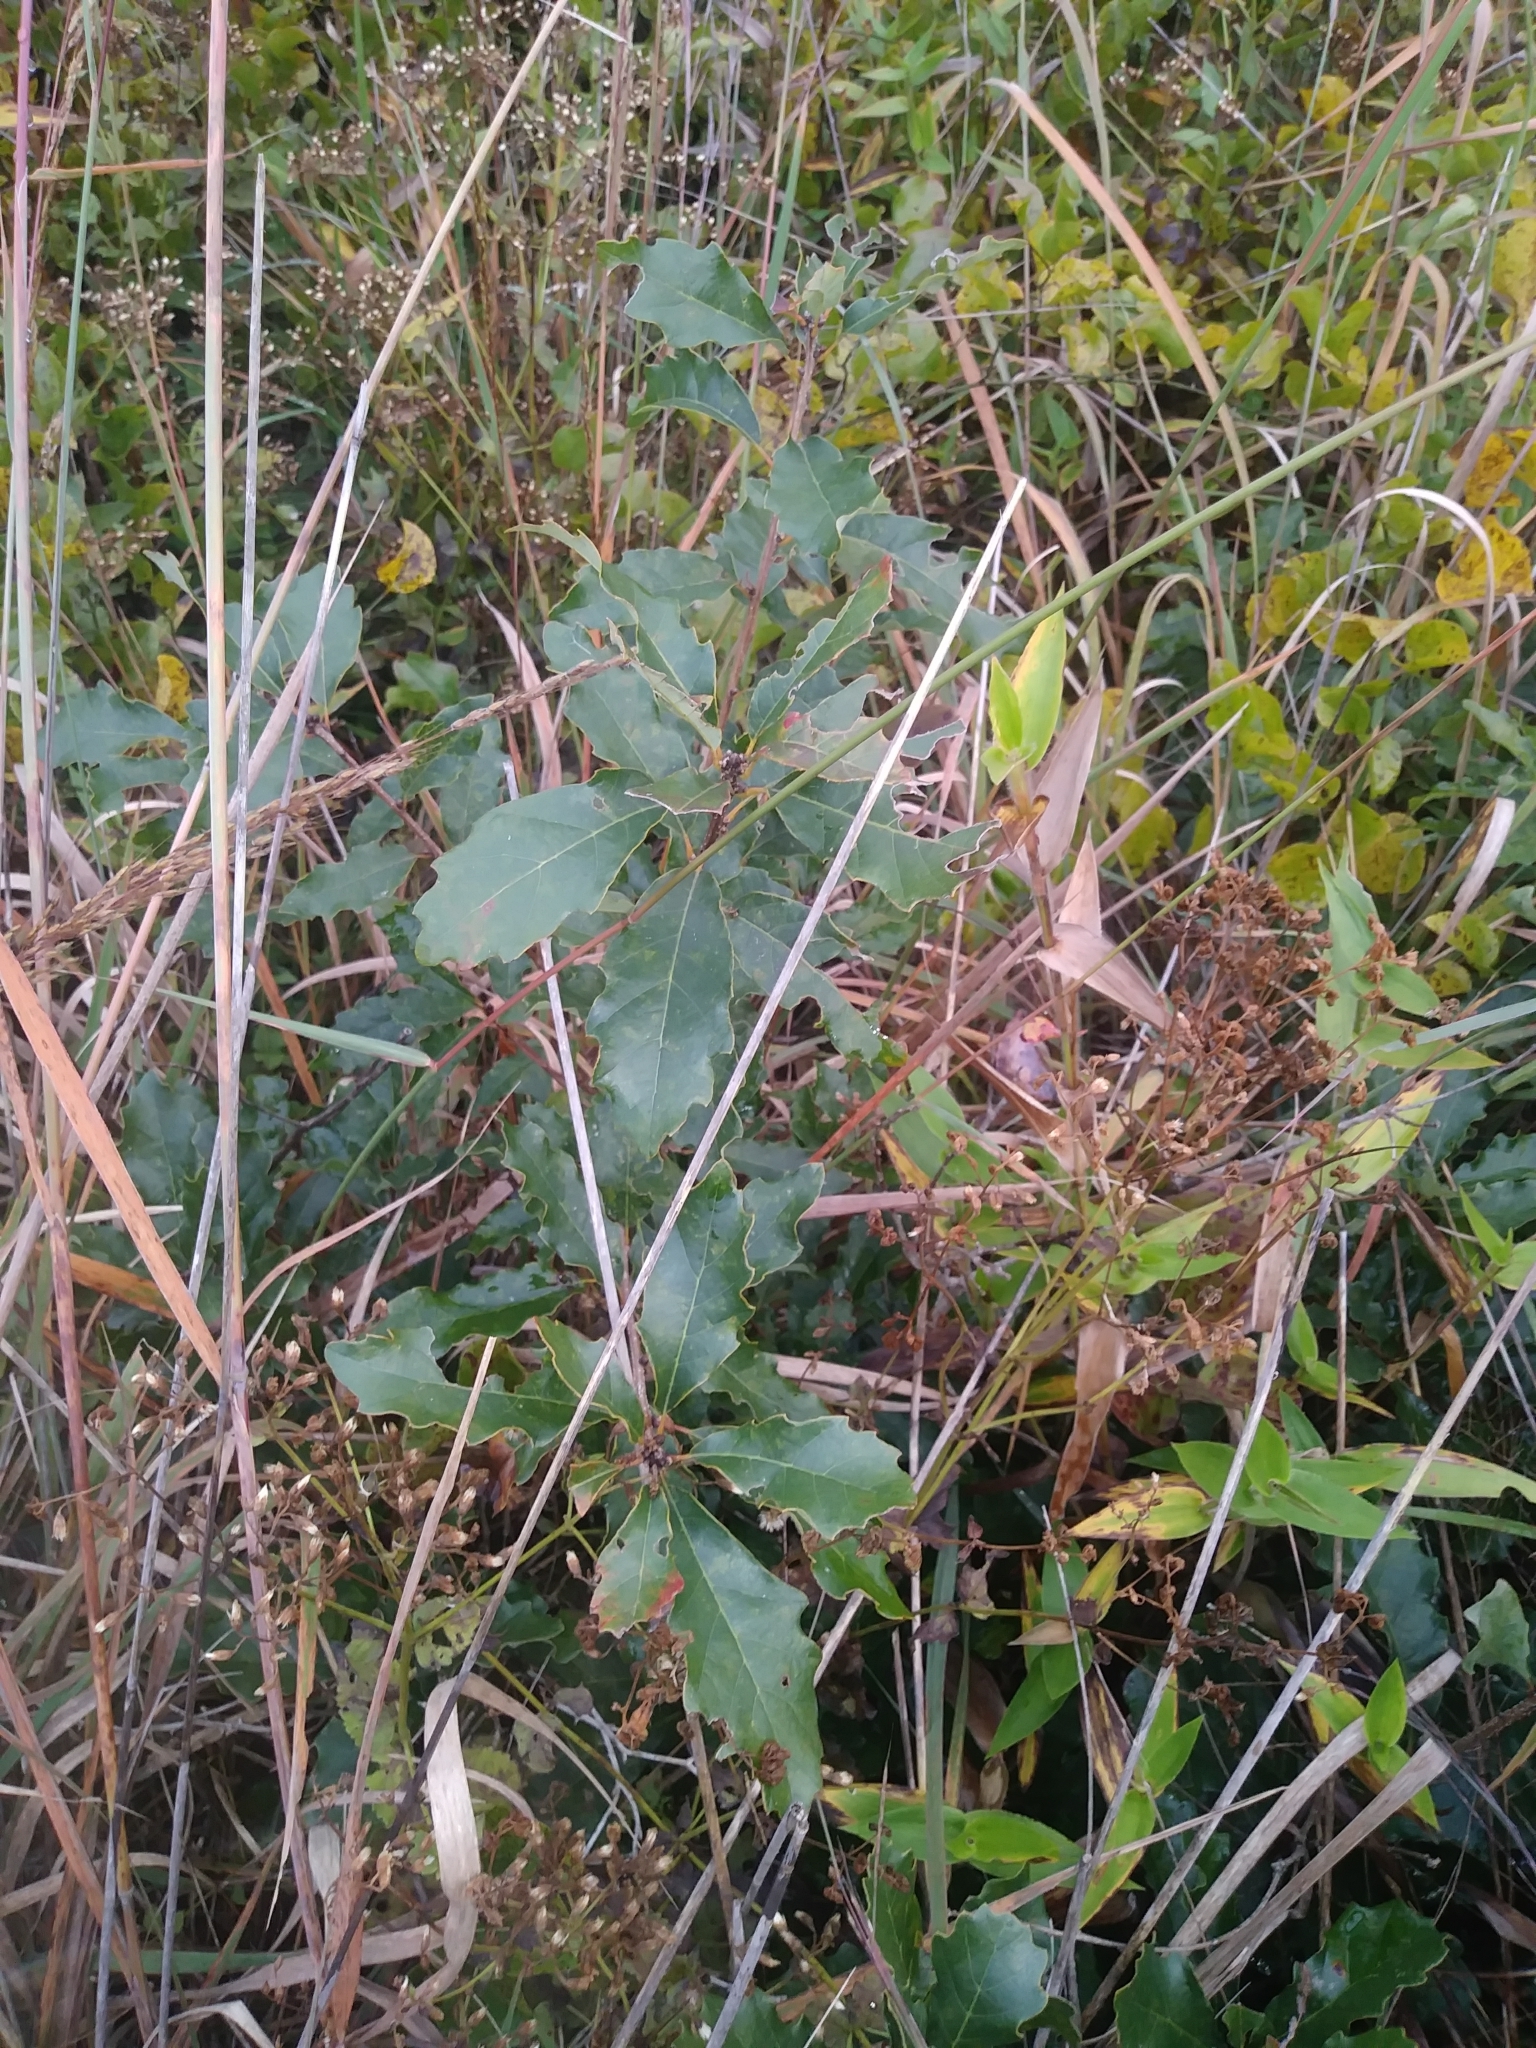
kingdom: Plantae
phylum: Tracheophyta
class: Magnoliopsida
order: Fagales
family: Fagaceae
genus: Quercus
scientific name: Quercus prinoides
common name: Dwarf chinkapin oak
